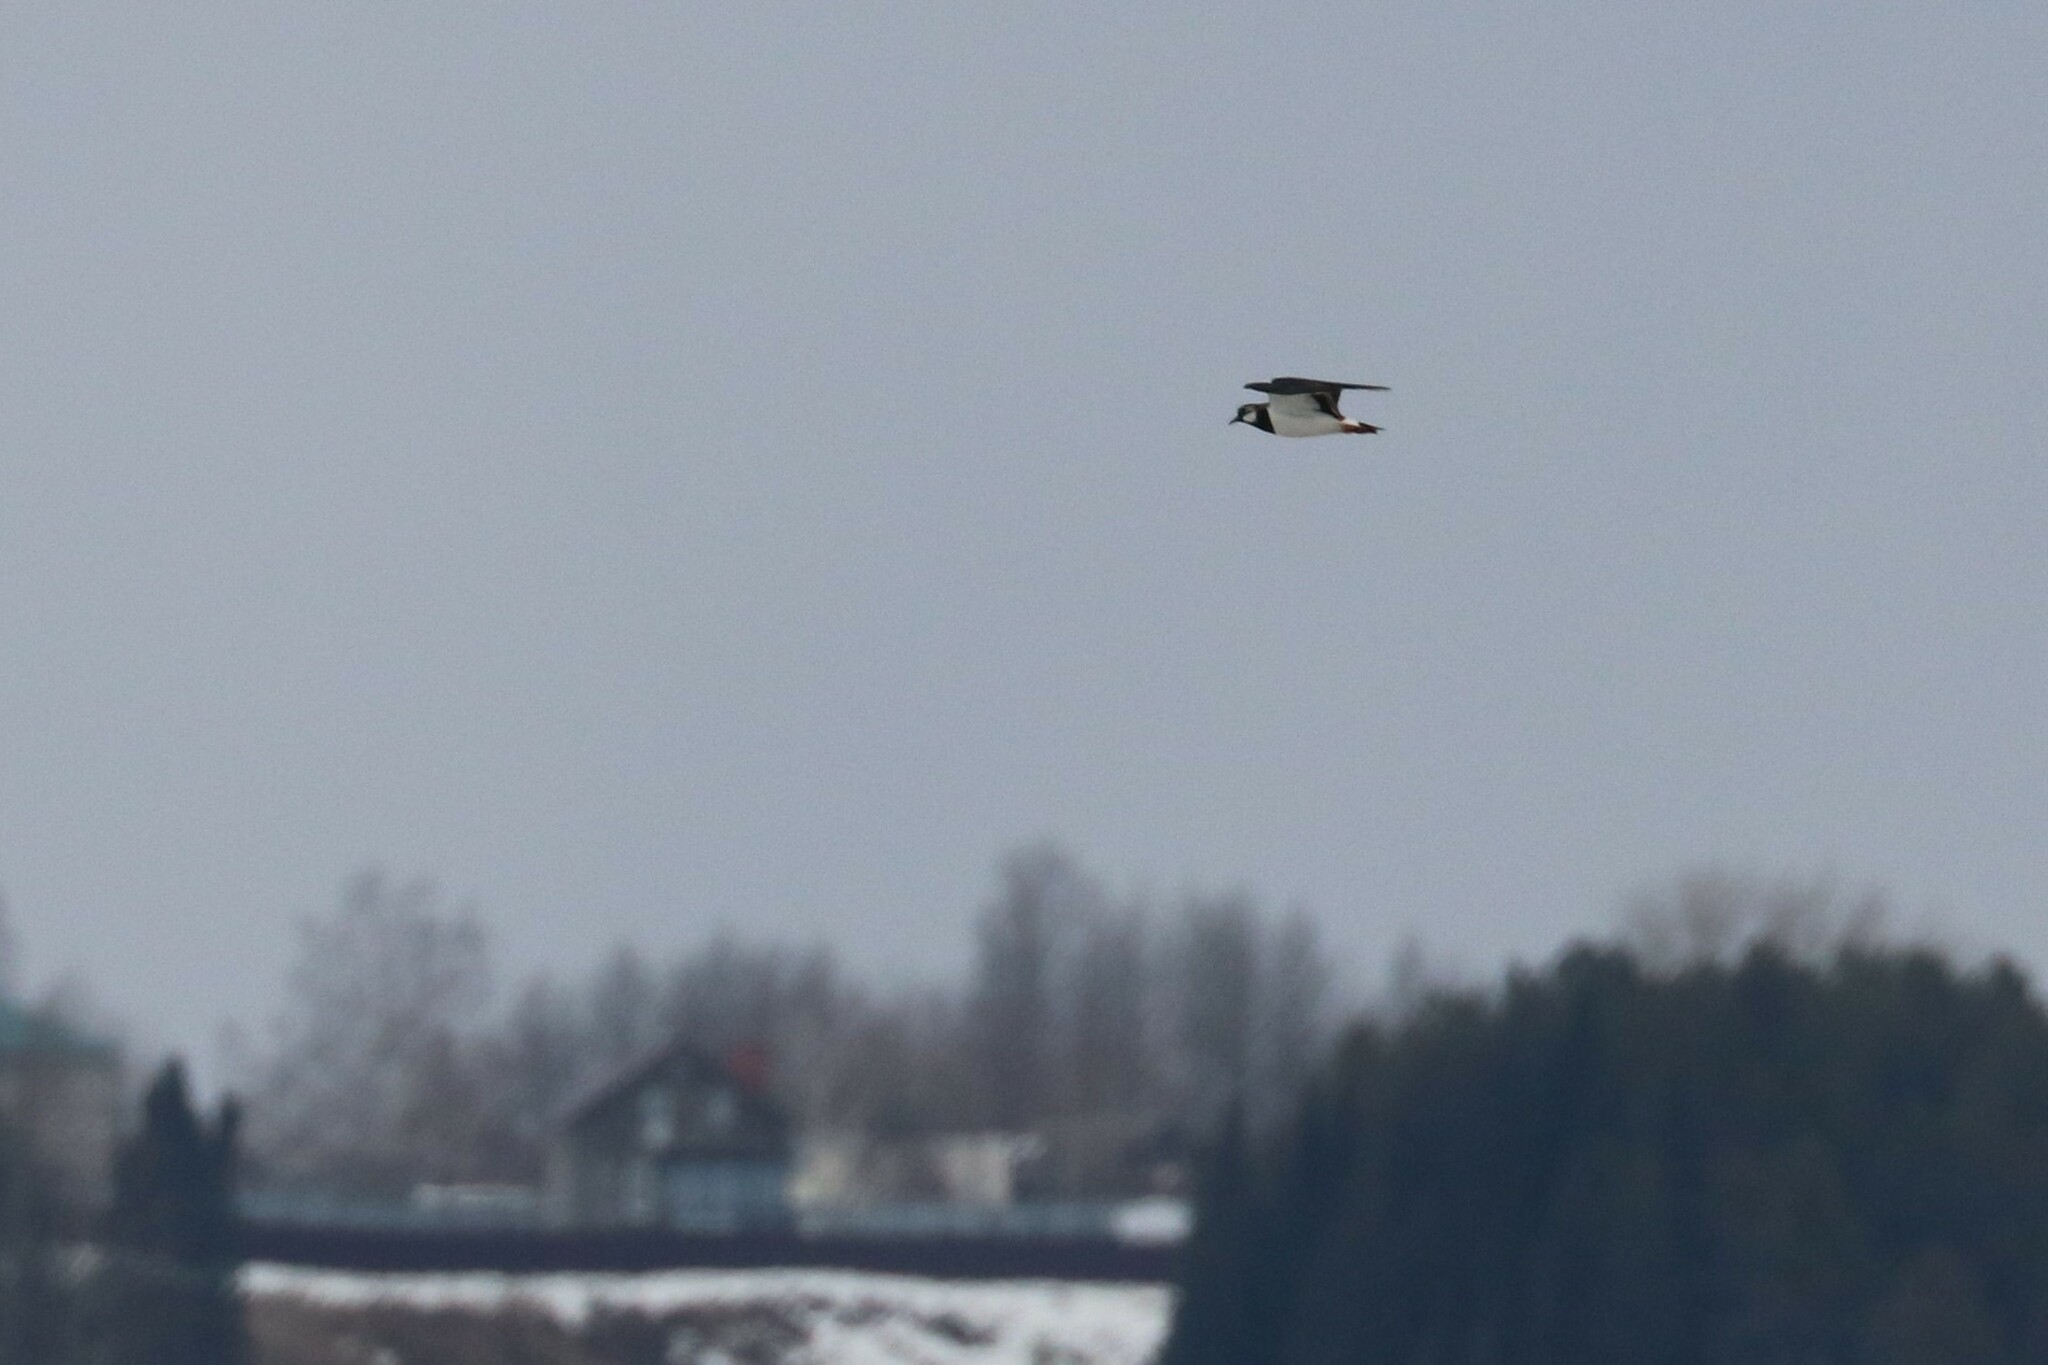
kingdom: Animalia
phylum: Chordata
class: Aves
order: Charadriiformes
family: Charadriidae
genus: Vanellus
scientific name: Vanellus vanellus
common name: Northern lapwing
